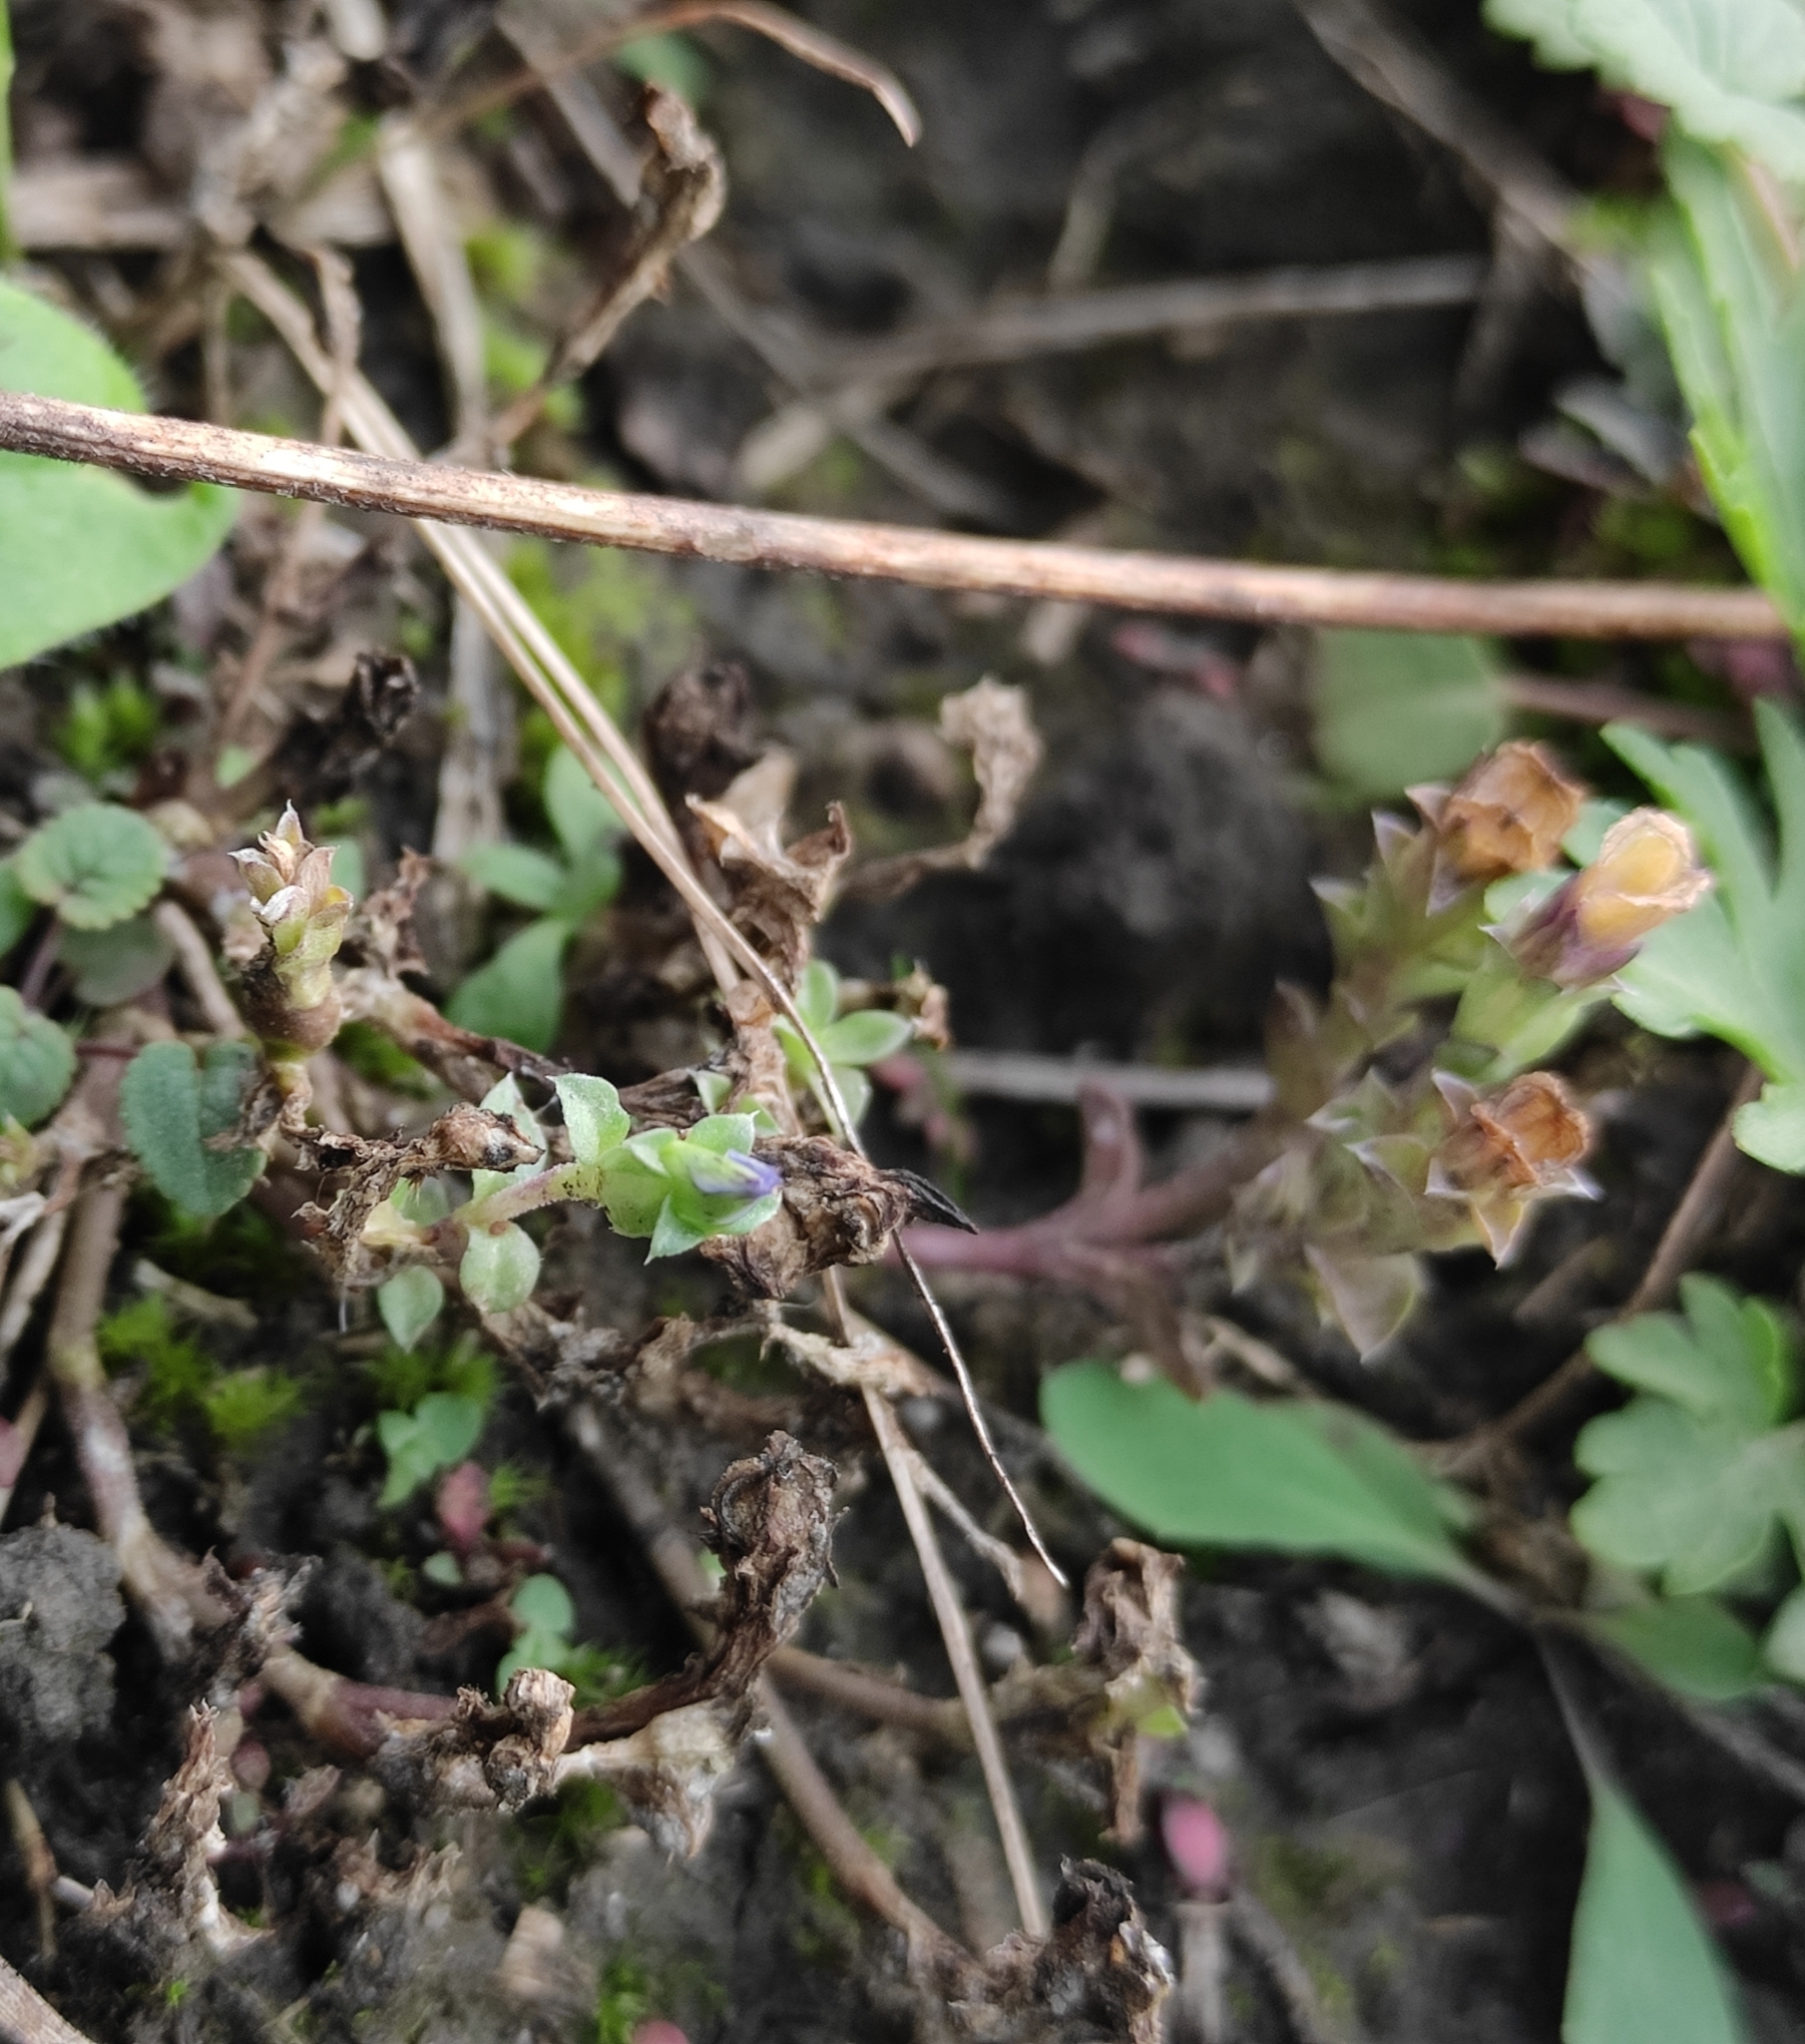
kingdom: Plantae
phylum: Tracheophyta
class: Magnoliopsida
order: Gentianales
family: Gentianaceae
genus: Gentiana
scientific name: Gentiana squarrosa
